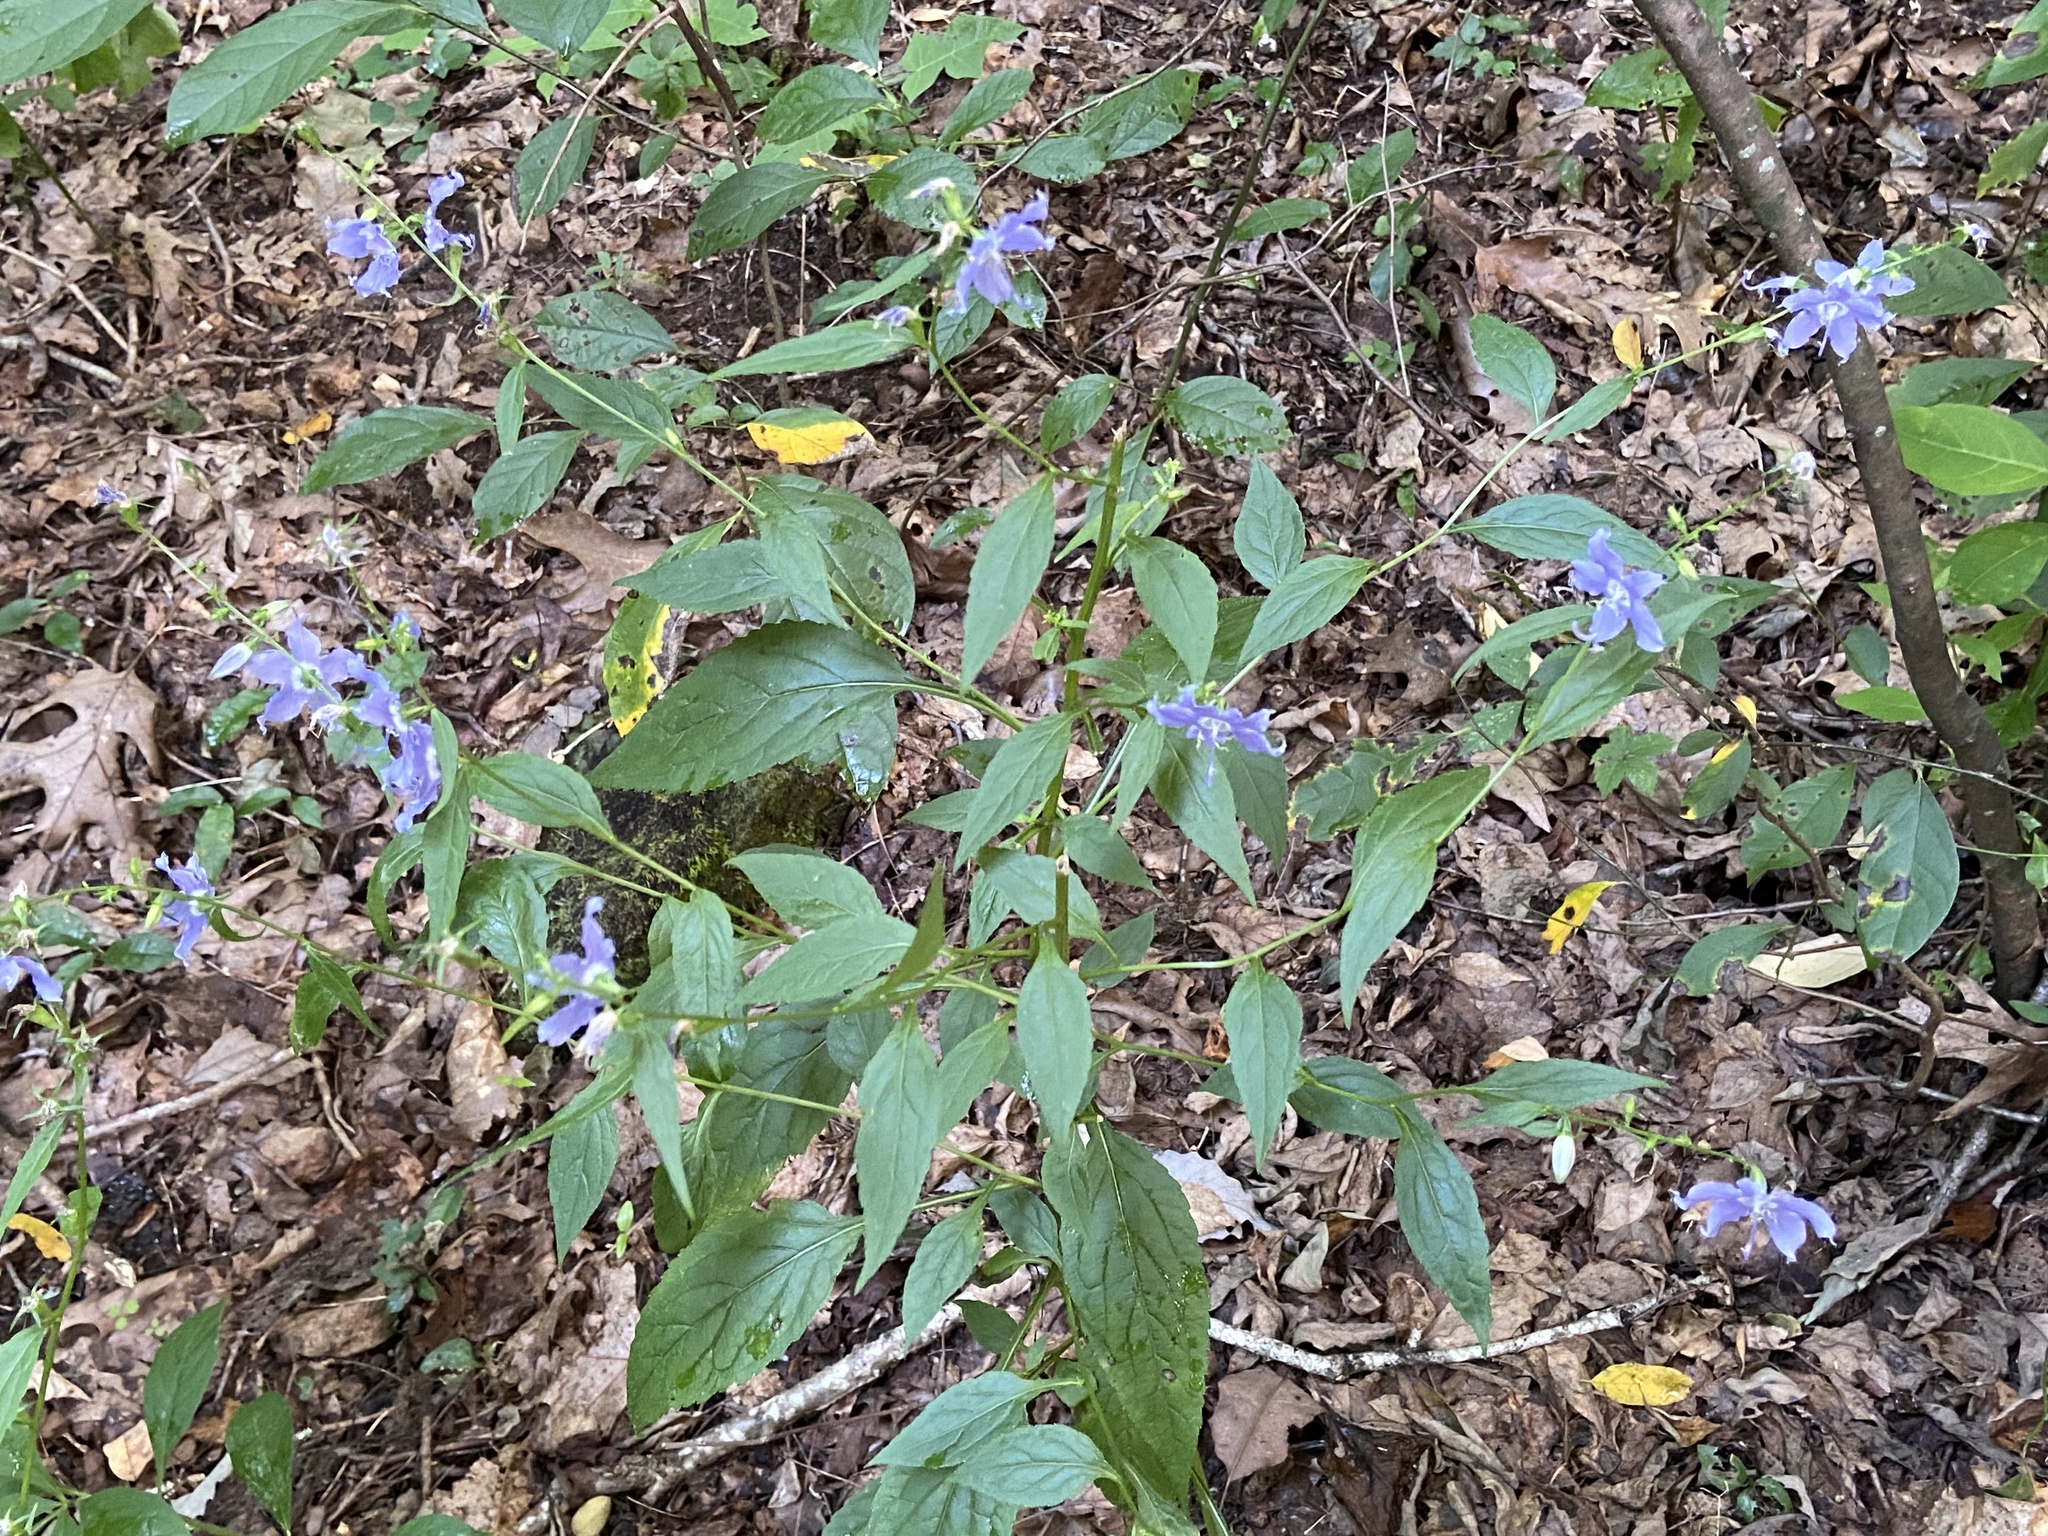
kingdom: Plantae
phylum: Tracheophyta
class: Magnoliopsida
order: Asterales
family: Campanulaceae
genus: Campanulastrum
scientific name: Campanulastrum americanum
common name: American bellflower
